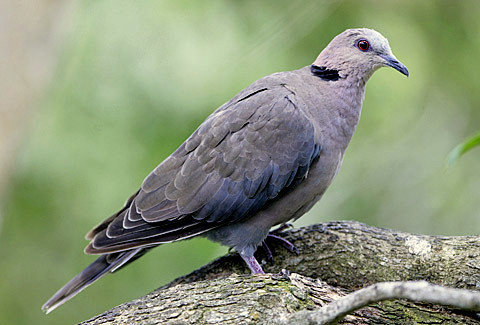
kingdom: Animalia
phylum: Chordata
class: Aves
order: Columbiformes
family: Columbidae
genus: Streptopelia
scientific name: Streptopelia semitorquata
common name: Red-eyed dove
